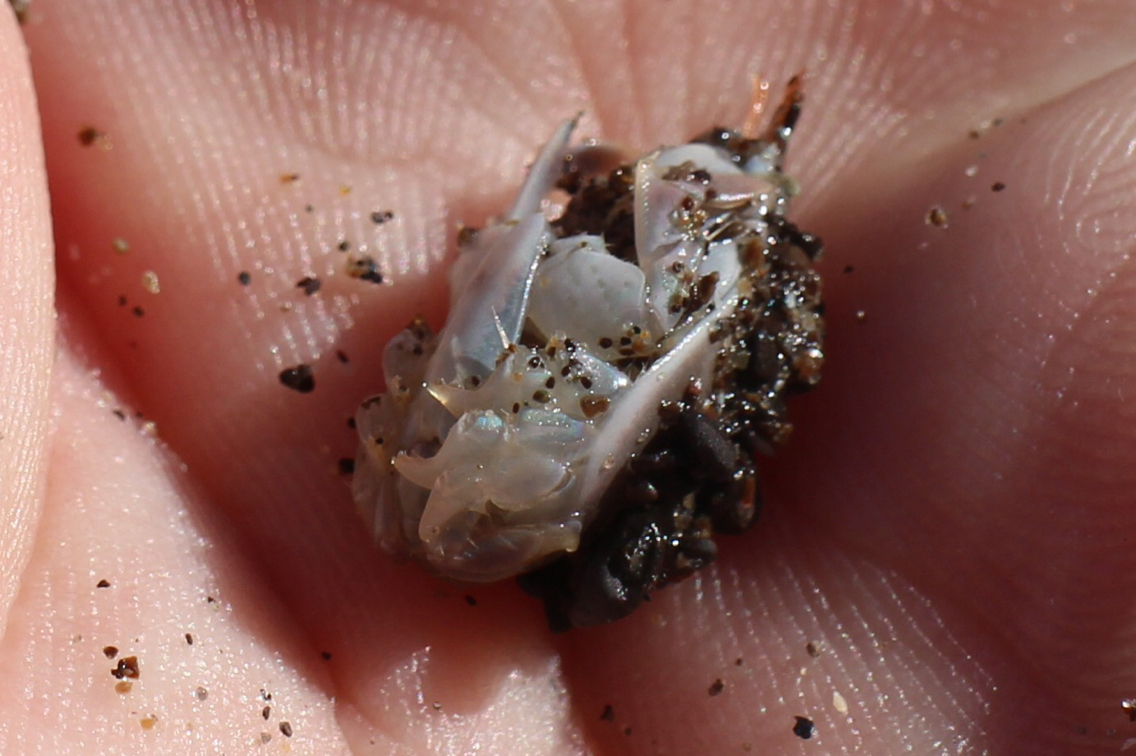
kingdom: Animalia
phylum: Arthropoda
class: Malacostraca
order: Decapoda
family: Hippidae
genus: Emerita
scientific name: Emerita analoga
